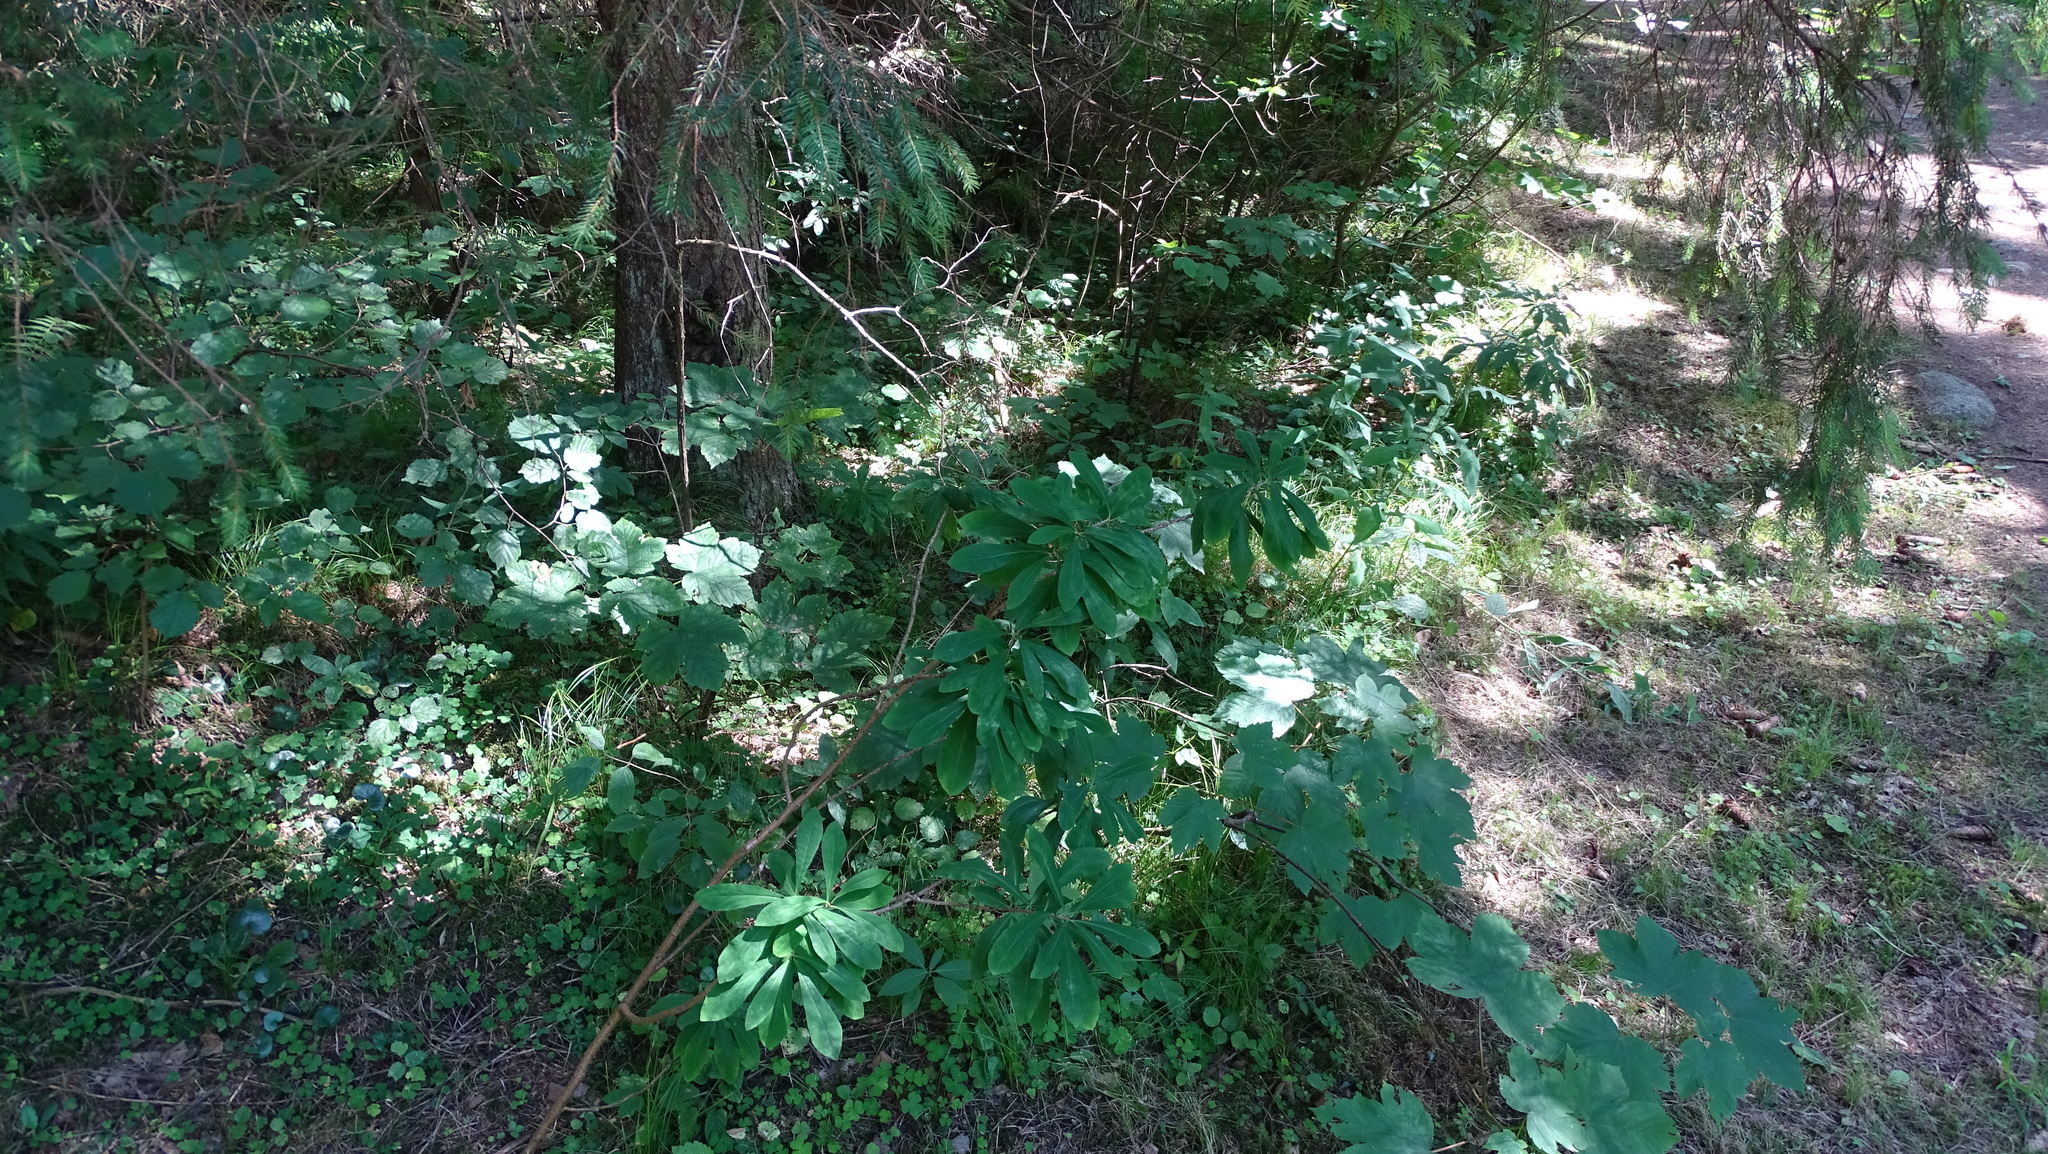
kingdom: Plantae
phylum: Tracheophyta
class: Magnoliopsida
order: Malvales
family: Thymelaeaceae
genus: Daphne
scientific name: Daphne mezereum
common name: Mezereon
